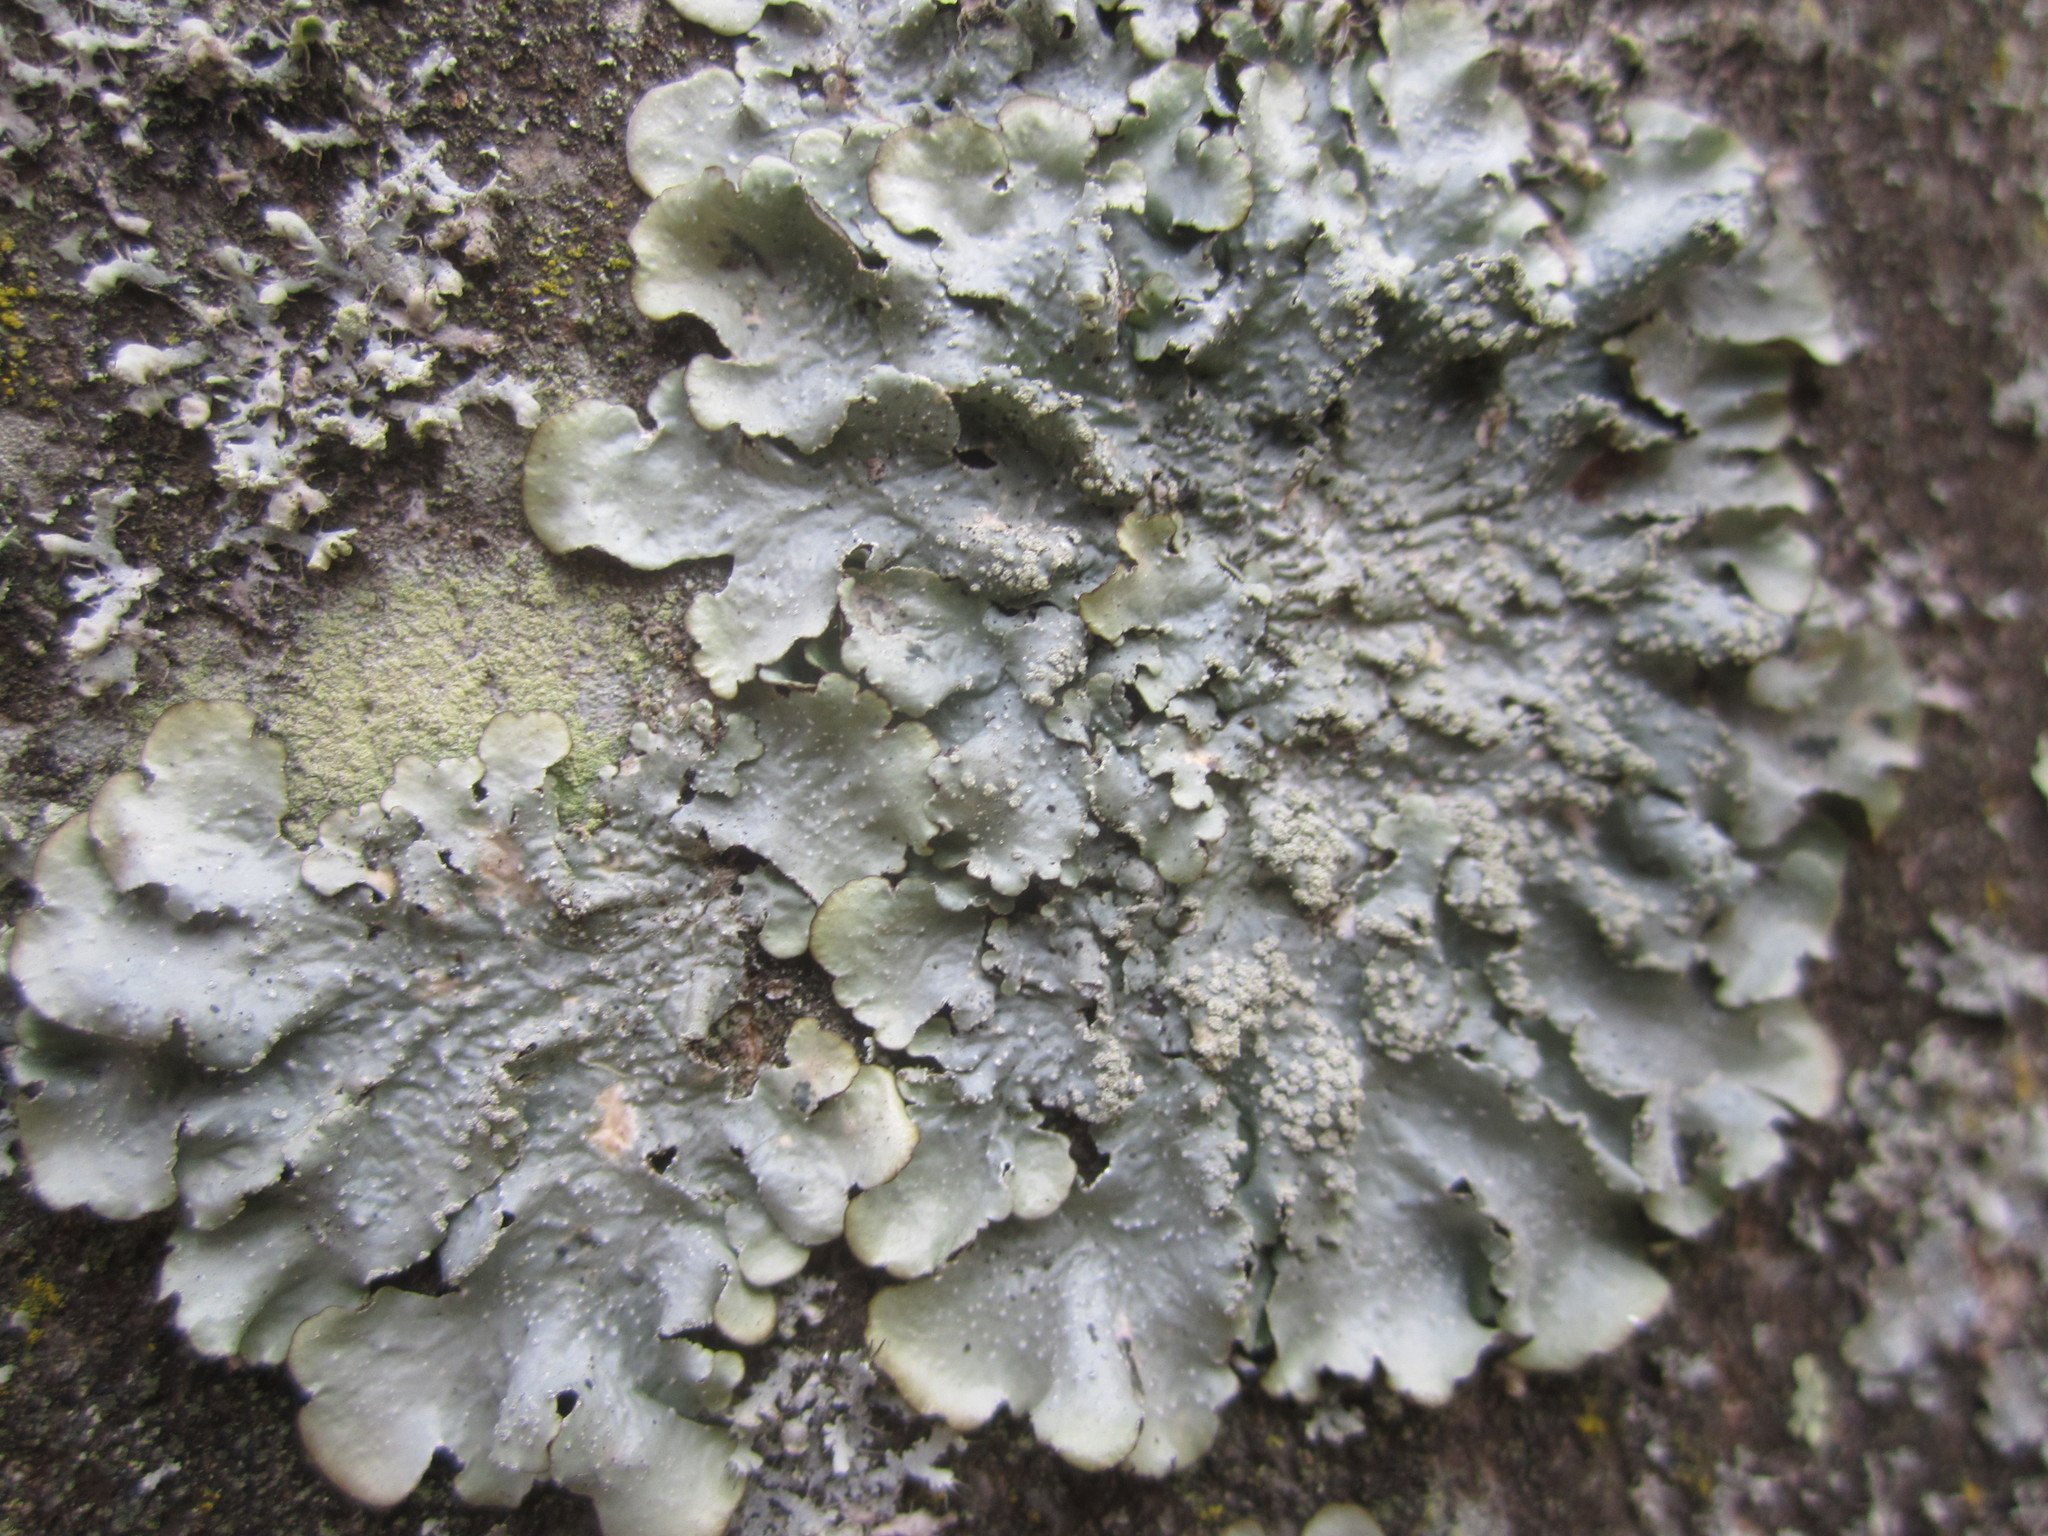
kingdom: Fungi
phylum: Ascomycota
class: Lecanoromycetes
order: Lecanorales
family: Parmeliaceae
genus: Punctelia
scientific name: Punctelia
